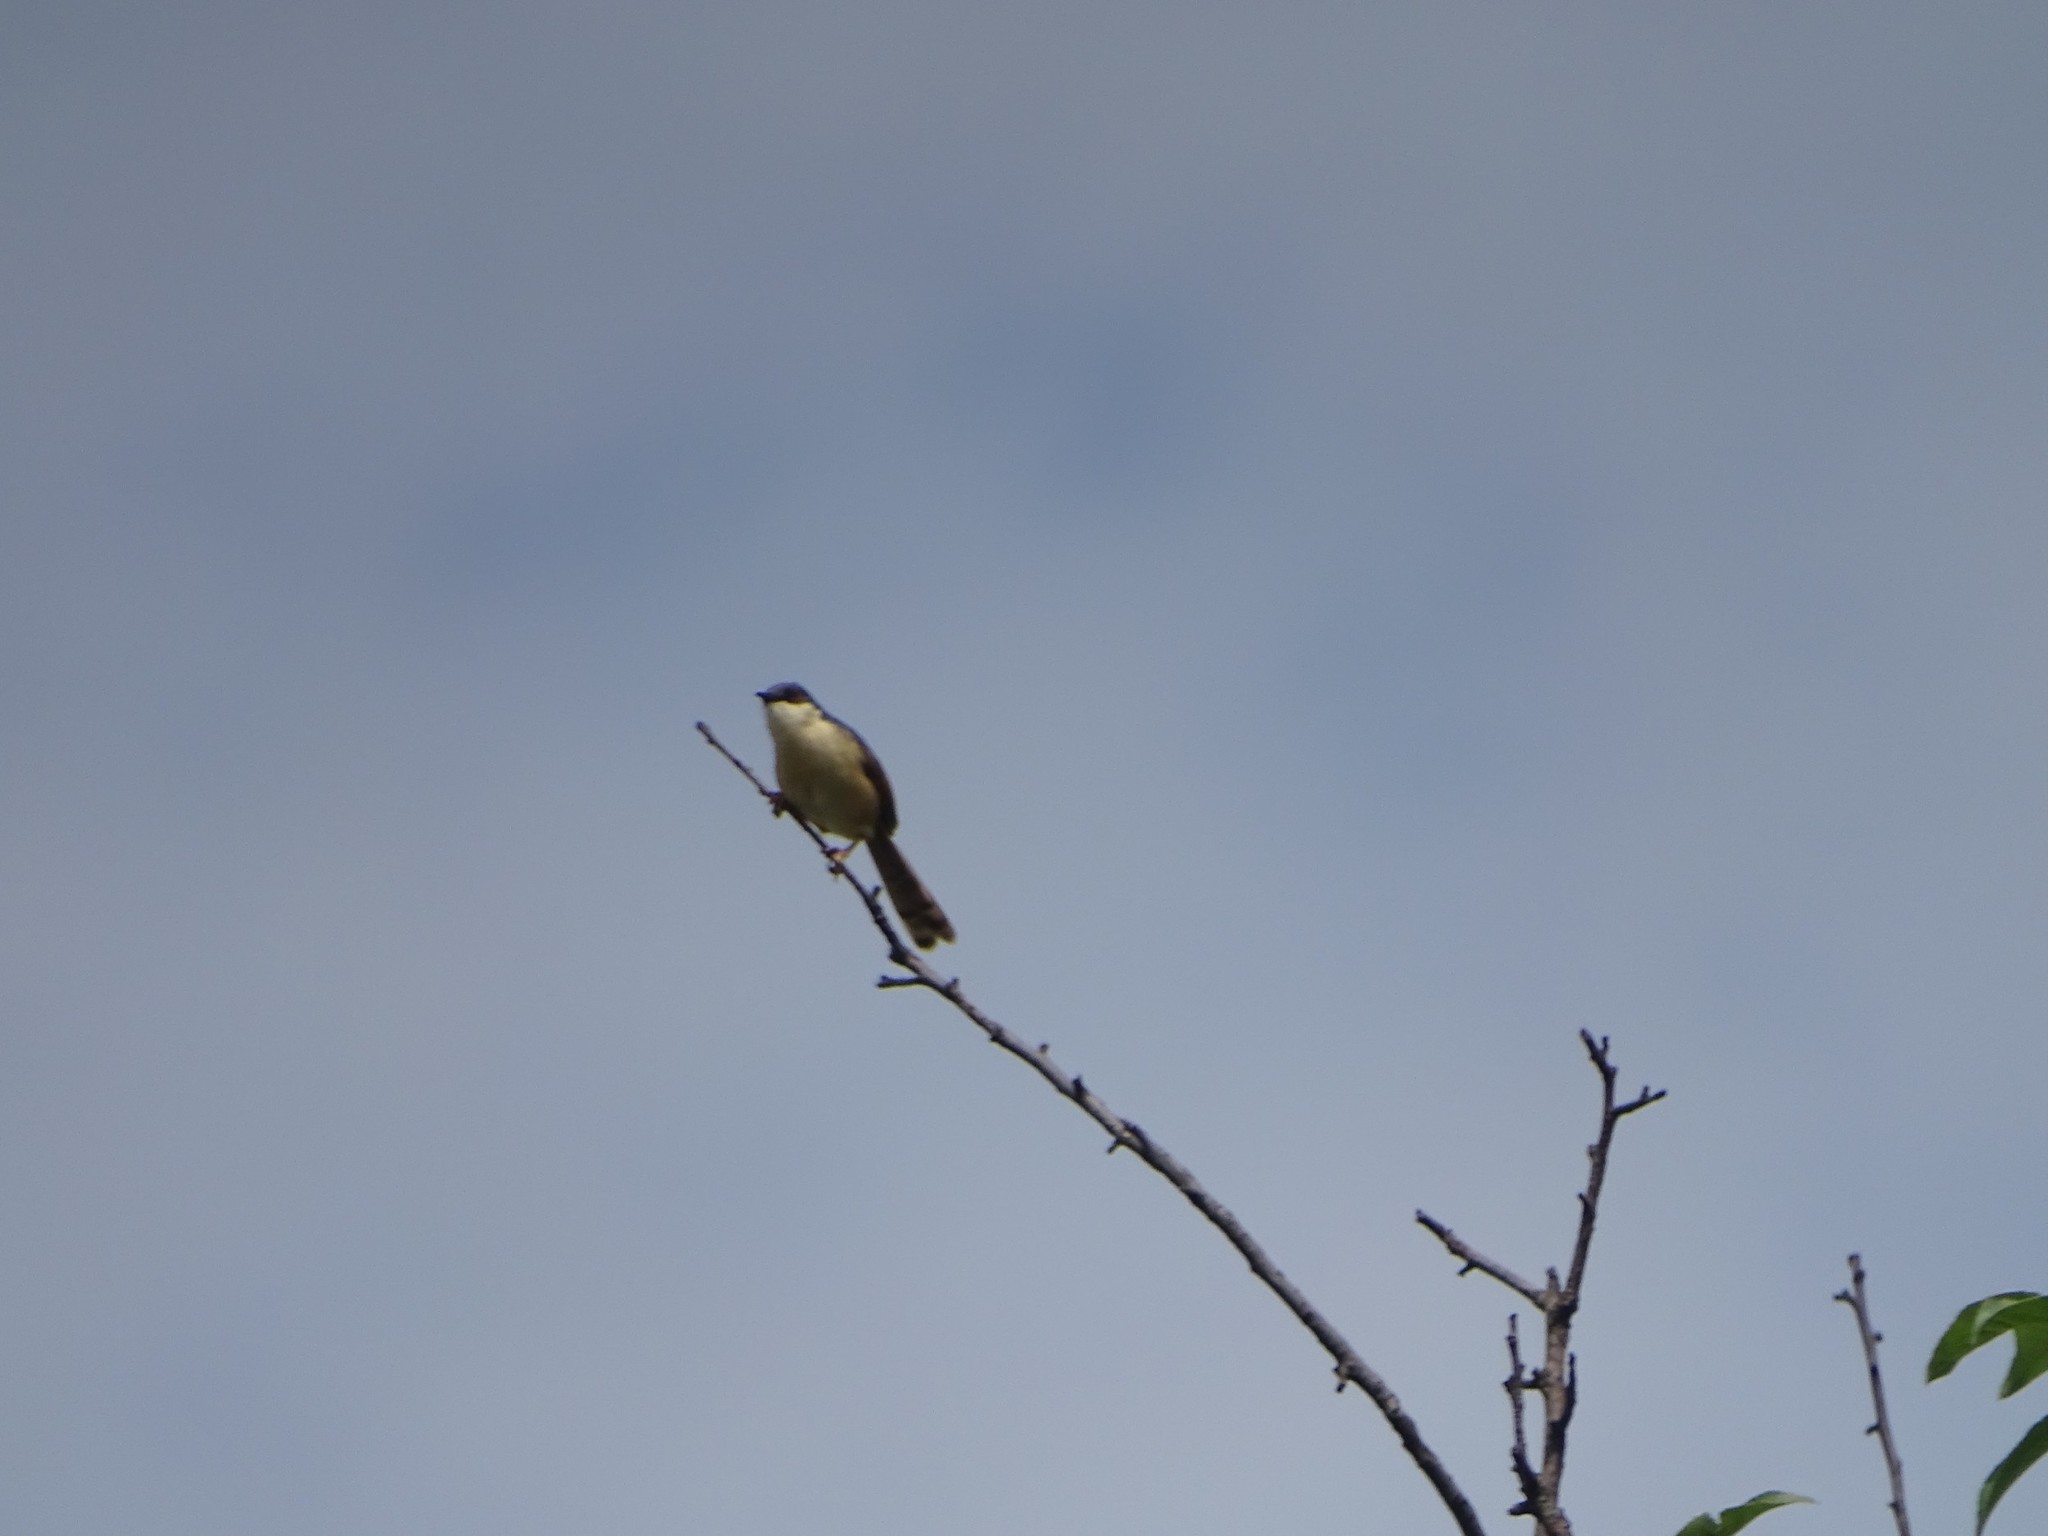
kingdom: Animalia
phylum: Chordata
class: Aves
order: Passeriformes
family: Cisticolidae
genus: Prinia
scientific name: Prinia socialis
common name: Ashy prinia
